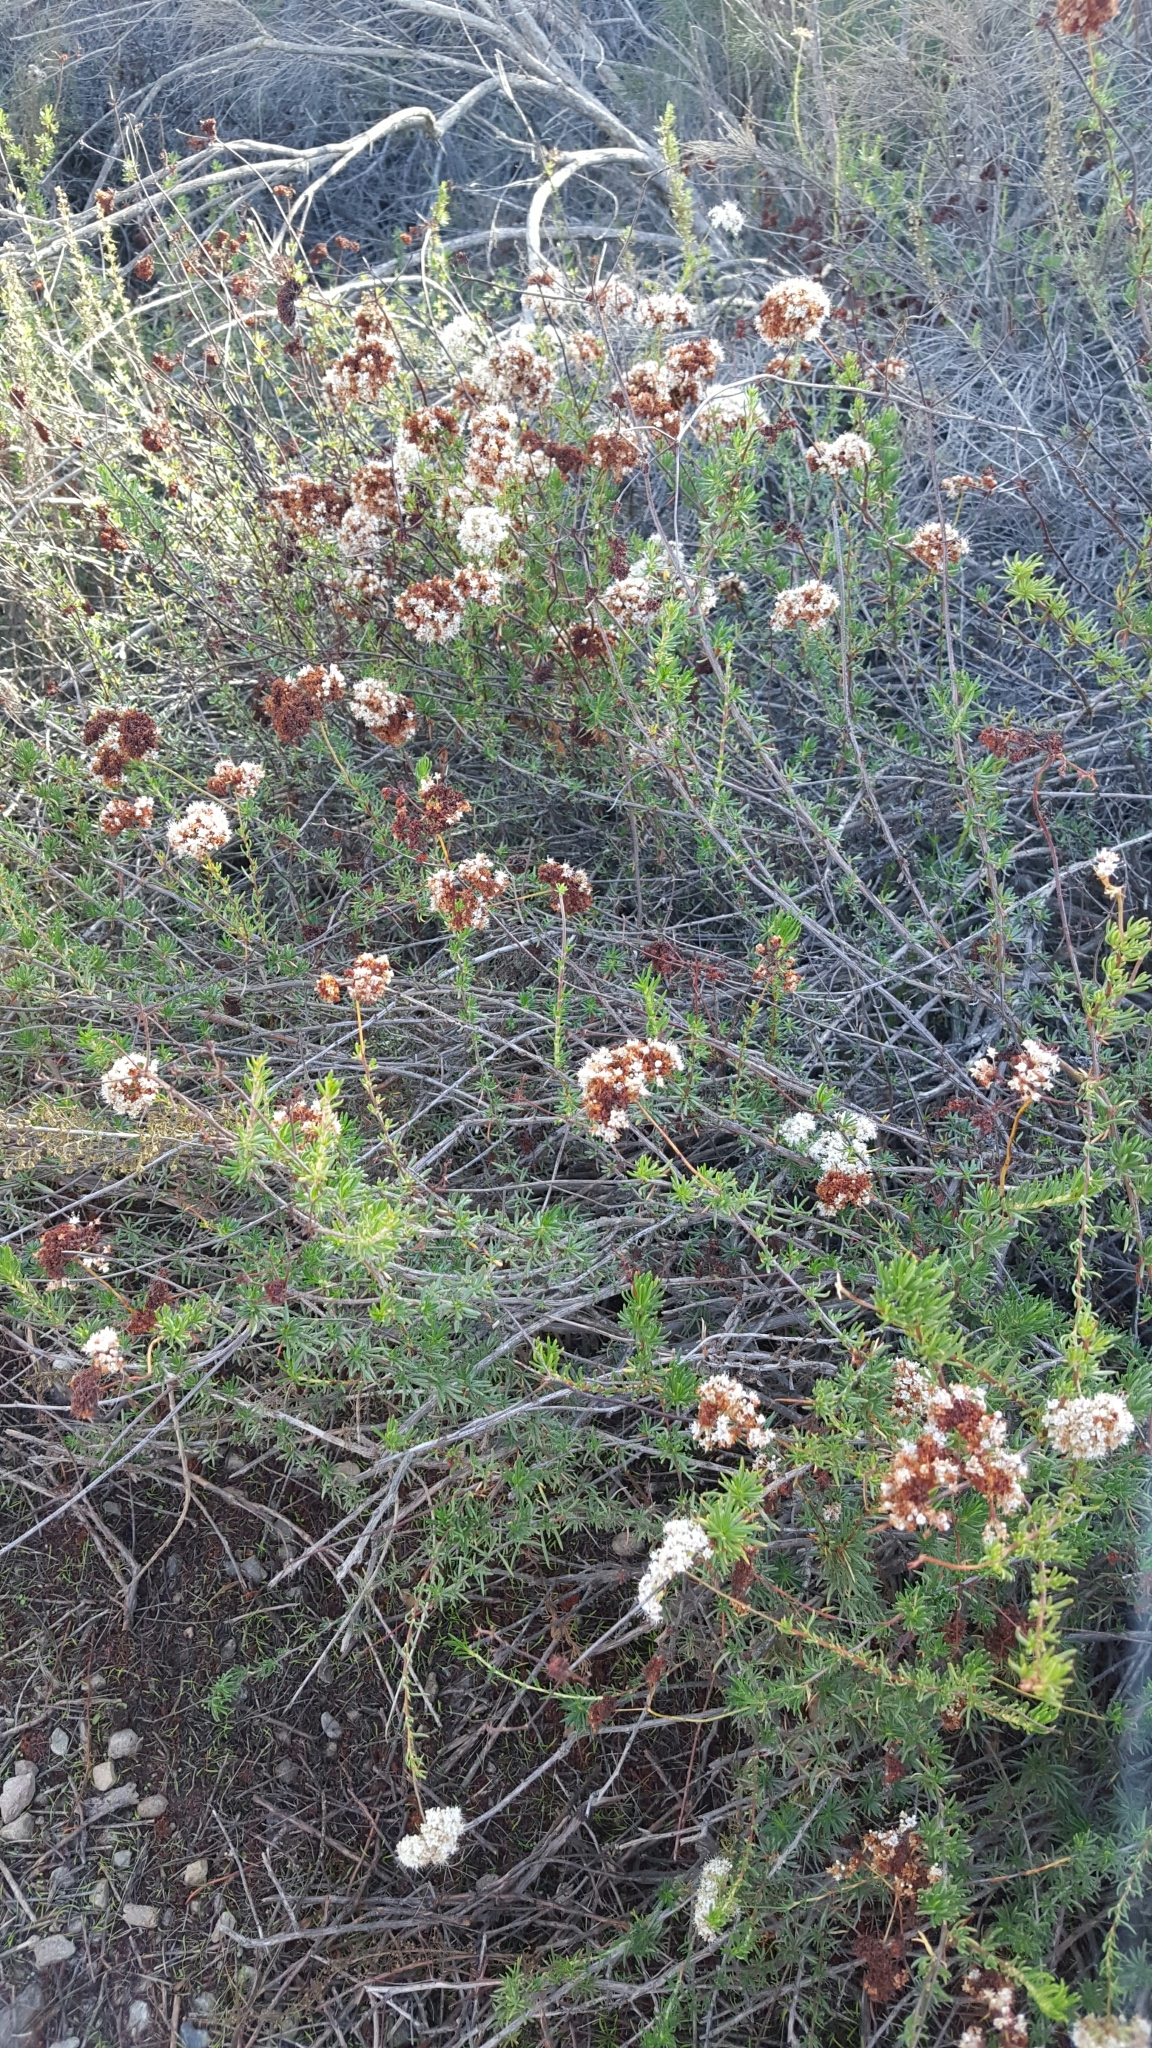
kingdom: Plantae
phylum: Tracheophyta
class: Magnoliopsida
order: Caryophyllales
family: Polygonaceae
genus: Eriogonum
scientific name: Eriogonum fasciculatum
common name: California wild buckwheat
